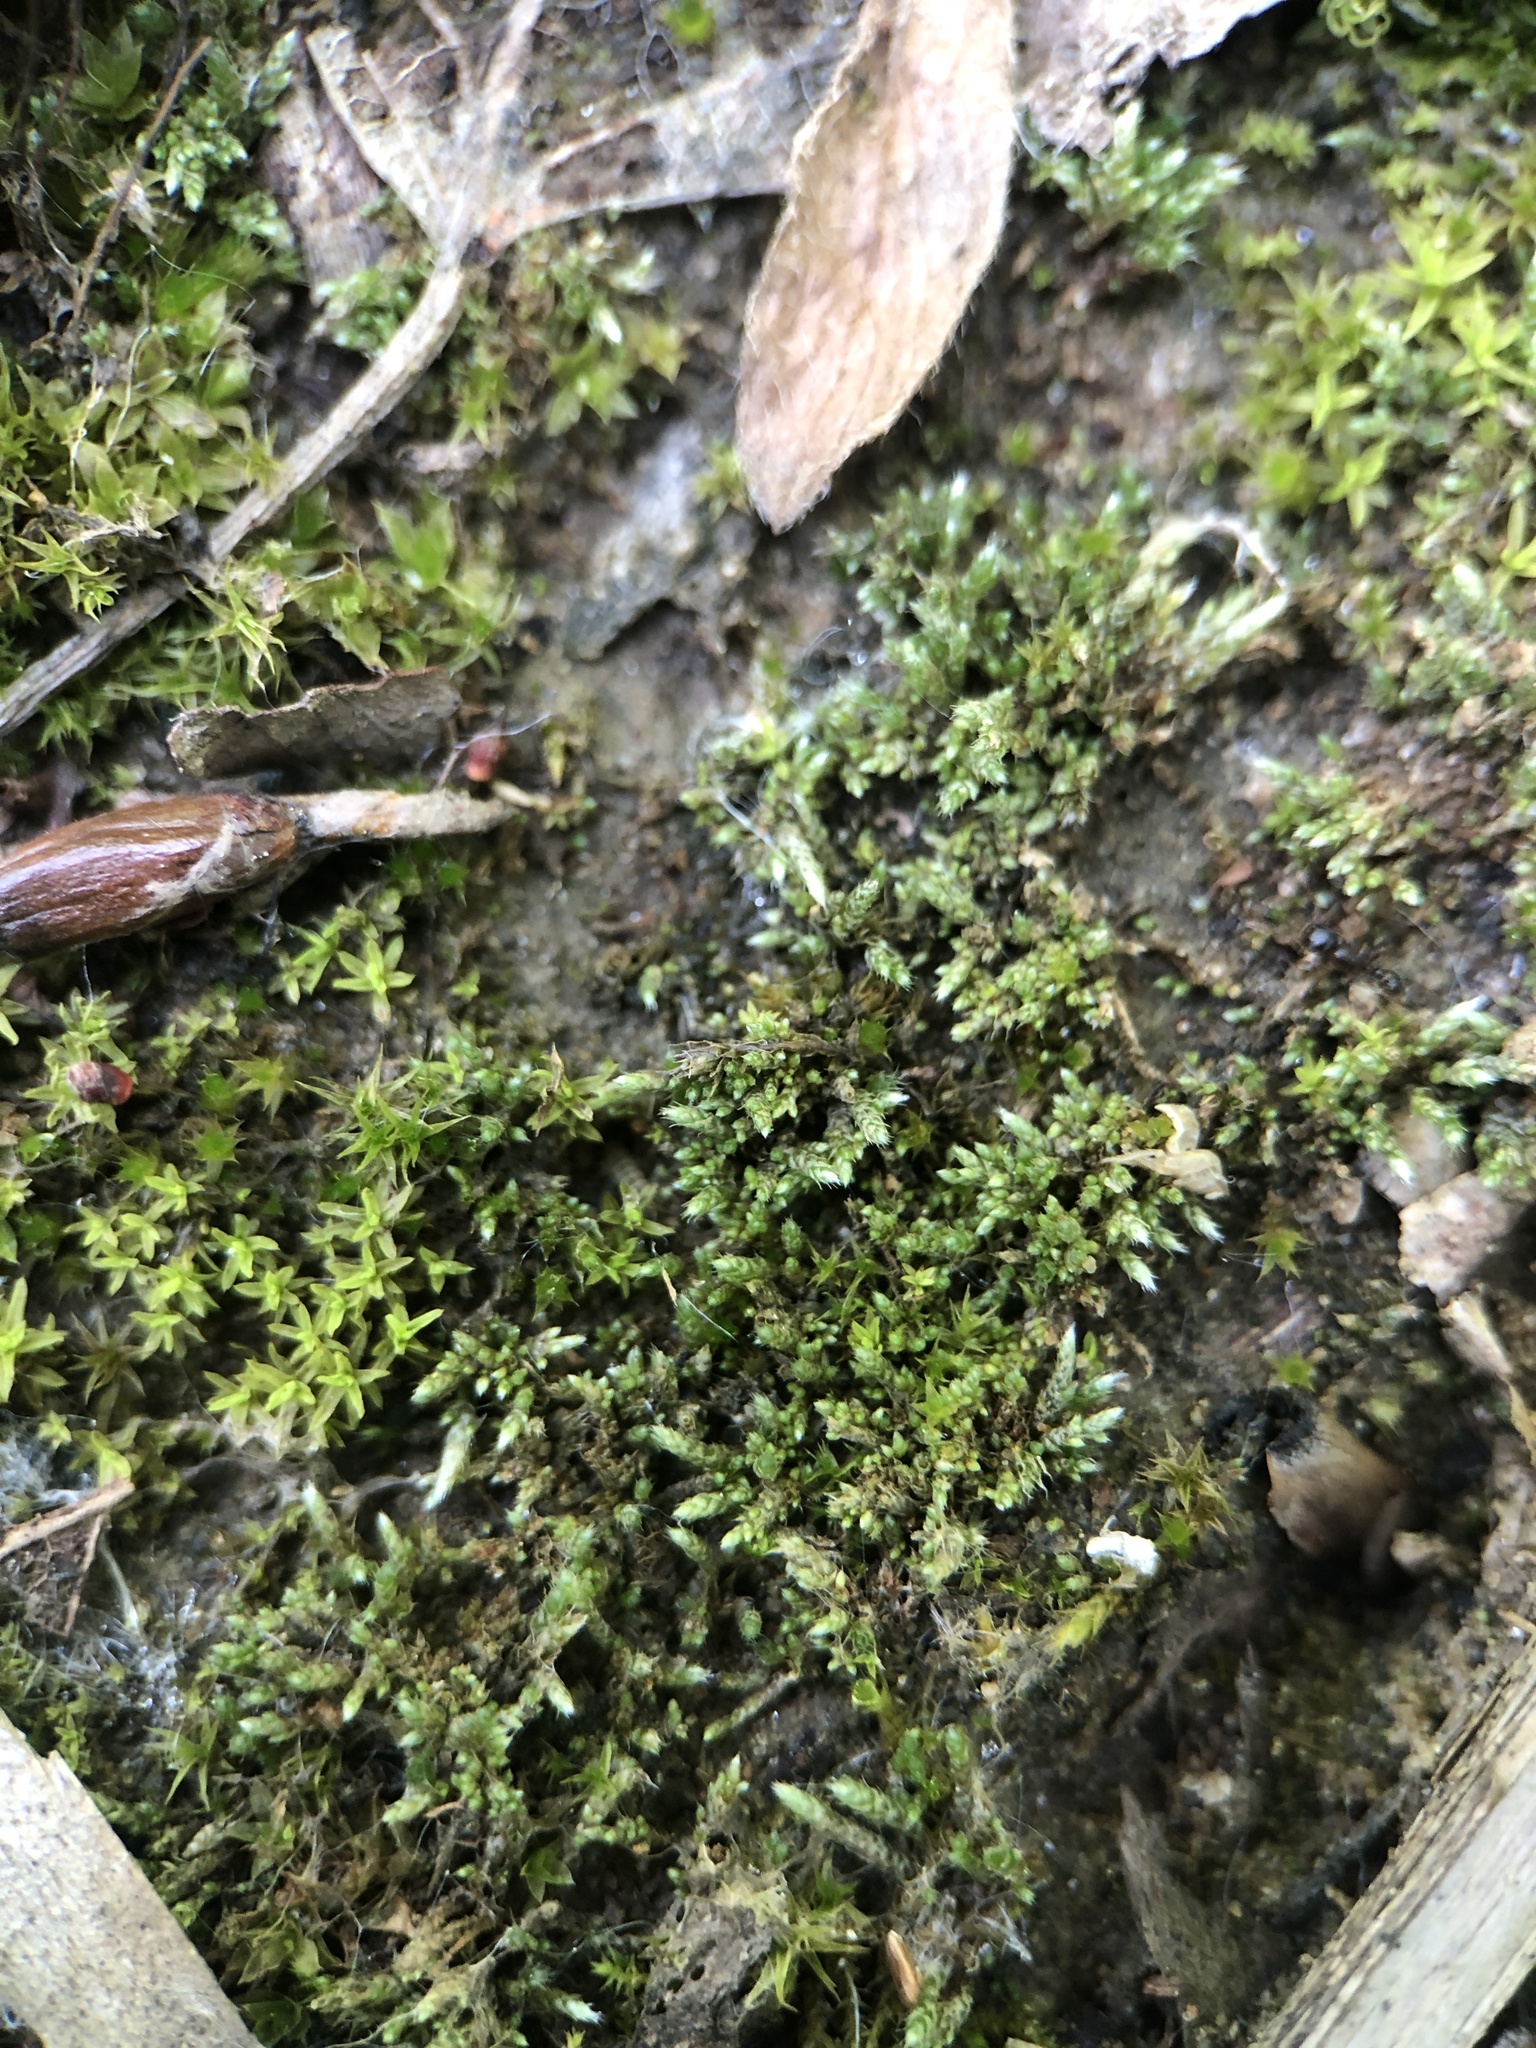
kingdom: Plantae
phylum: Bryophyta
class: Bryopsida
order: Bryales
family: Bryaceae
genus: Bryum
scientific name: Bryum argenteum
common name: Silver-moss
